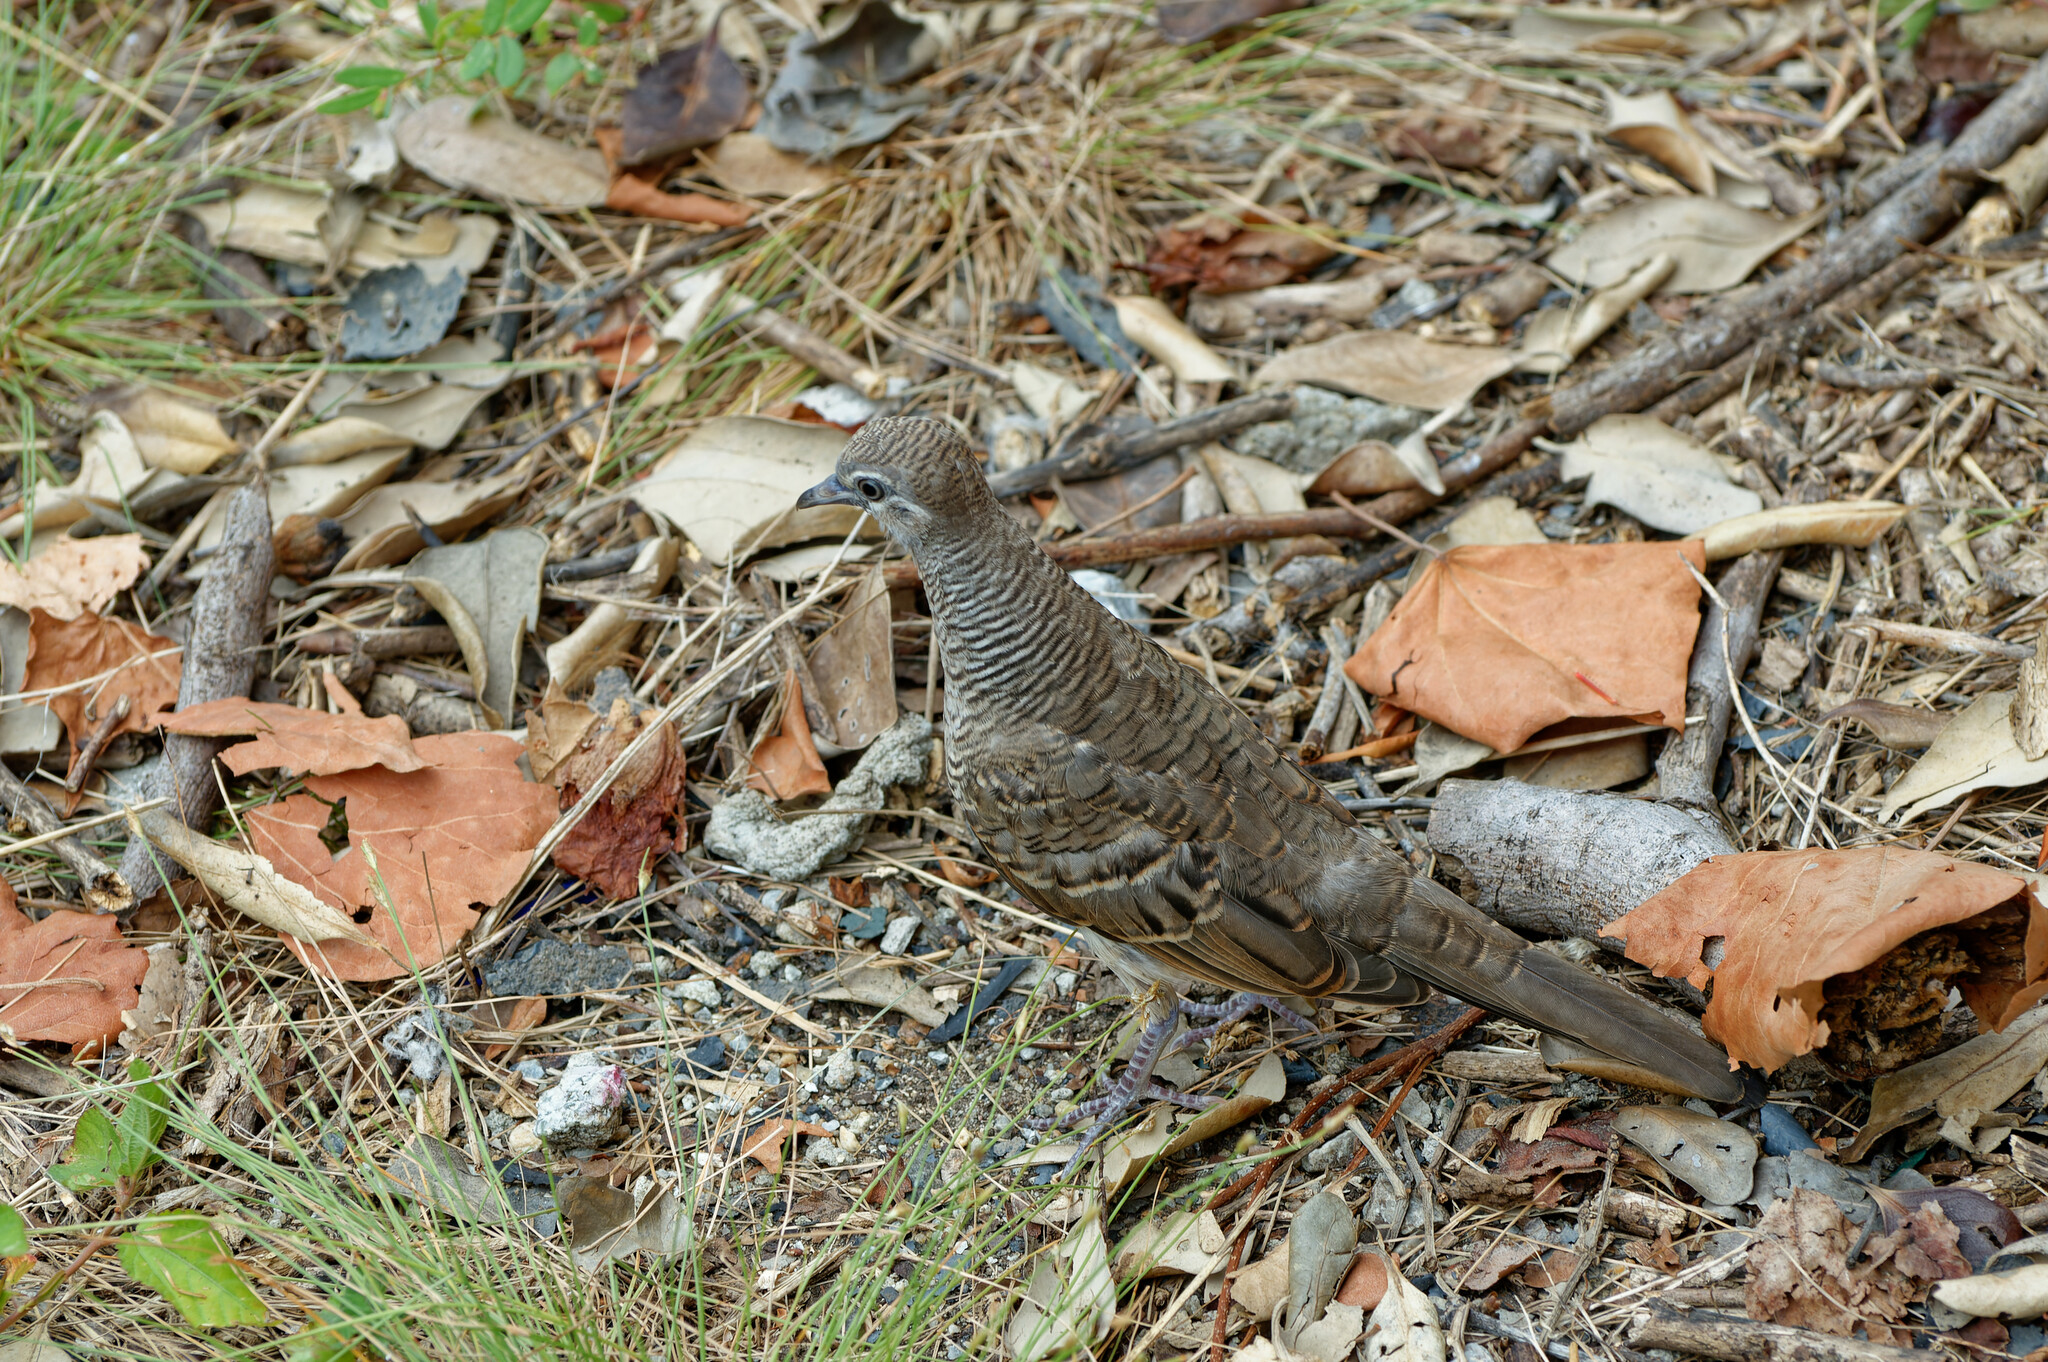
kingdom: Animalia
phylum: Chordata
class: Aves
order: Columbiformes
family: Columbidae
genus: Geopelia
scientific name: Geopelia striata
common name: Zebra dove
